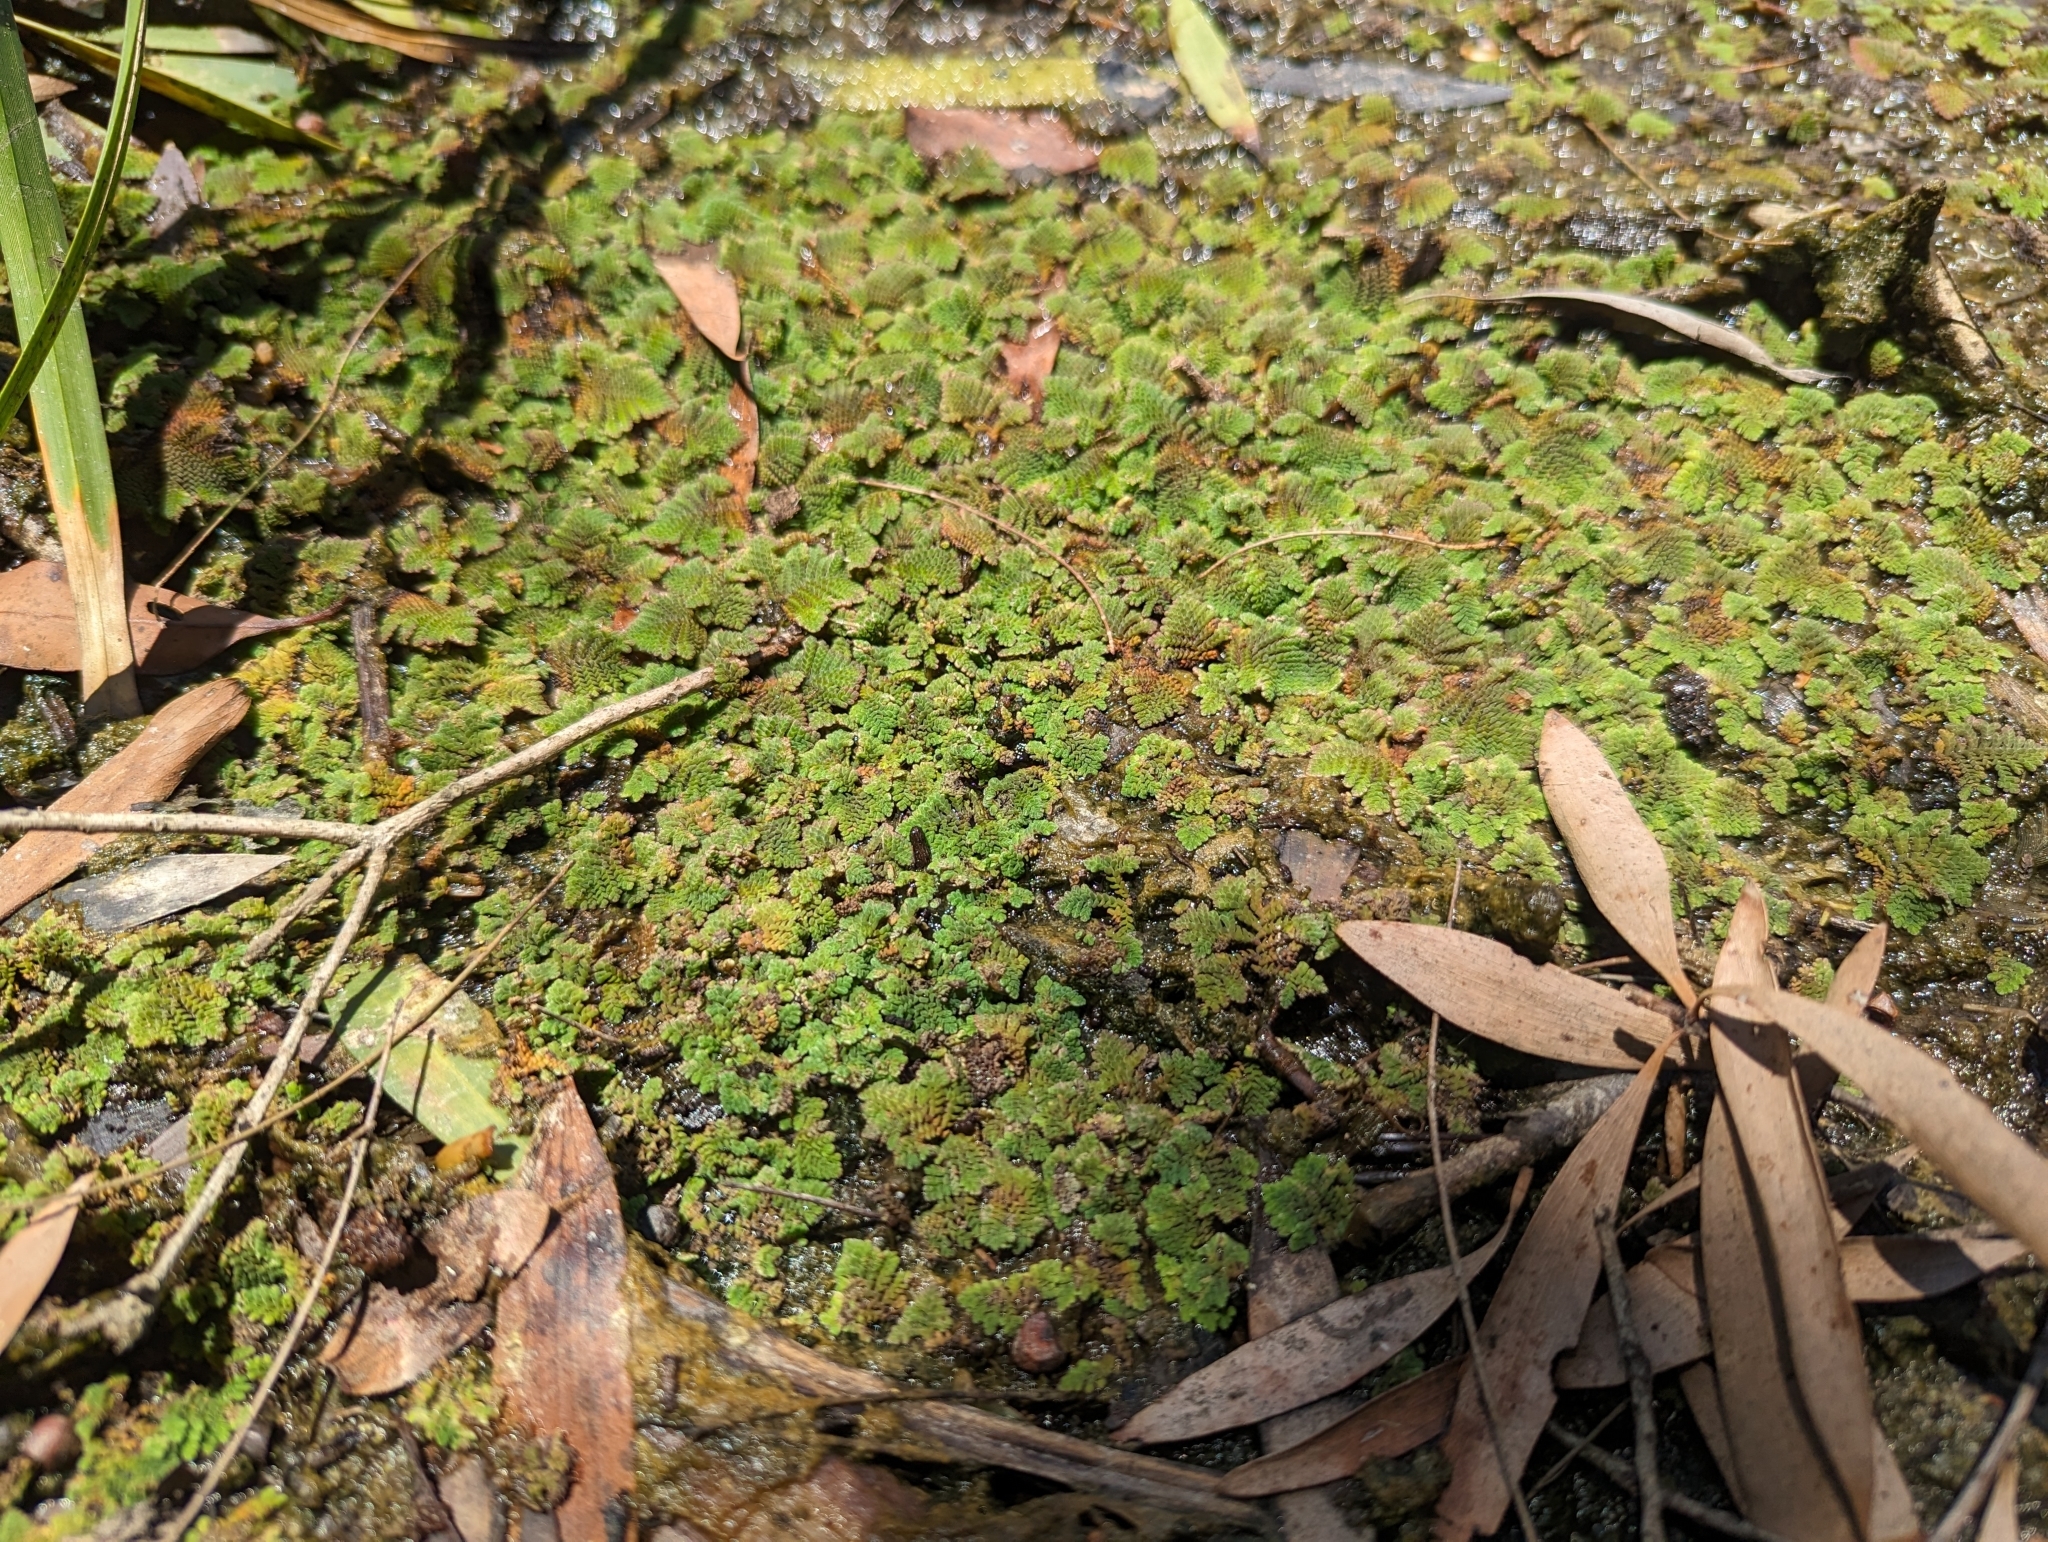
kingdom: Plantae
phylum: Tracheophyta
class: Polypodiopsida
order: Salviniales
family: Salviniaceae
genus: Azolla
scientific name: Azolla pinnata
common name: Ferny azolla
